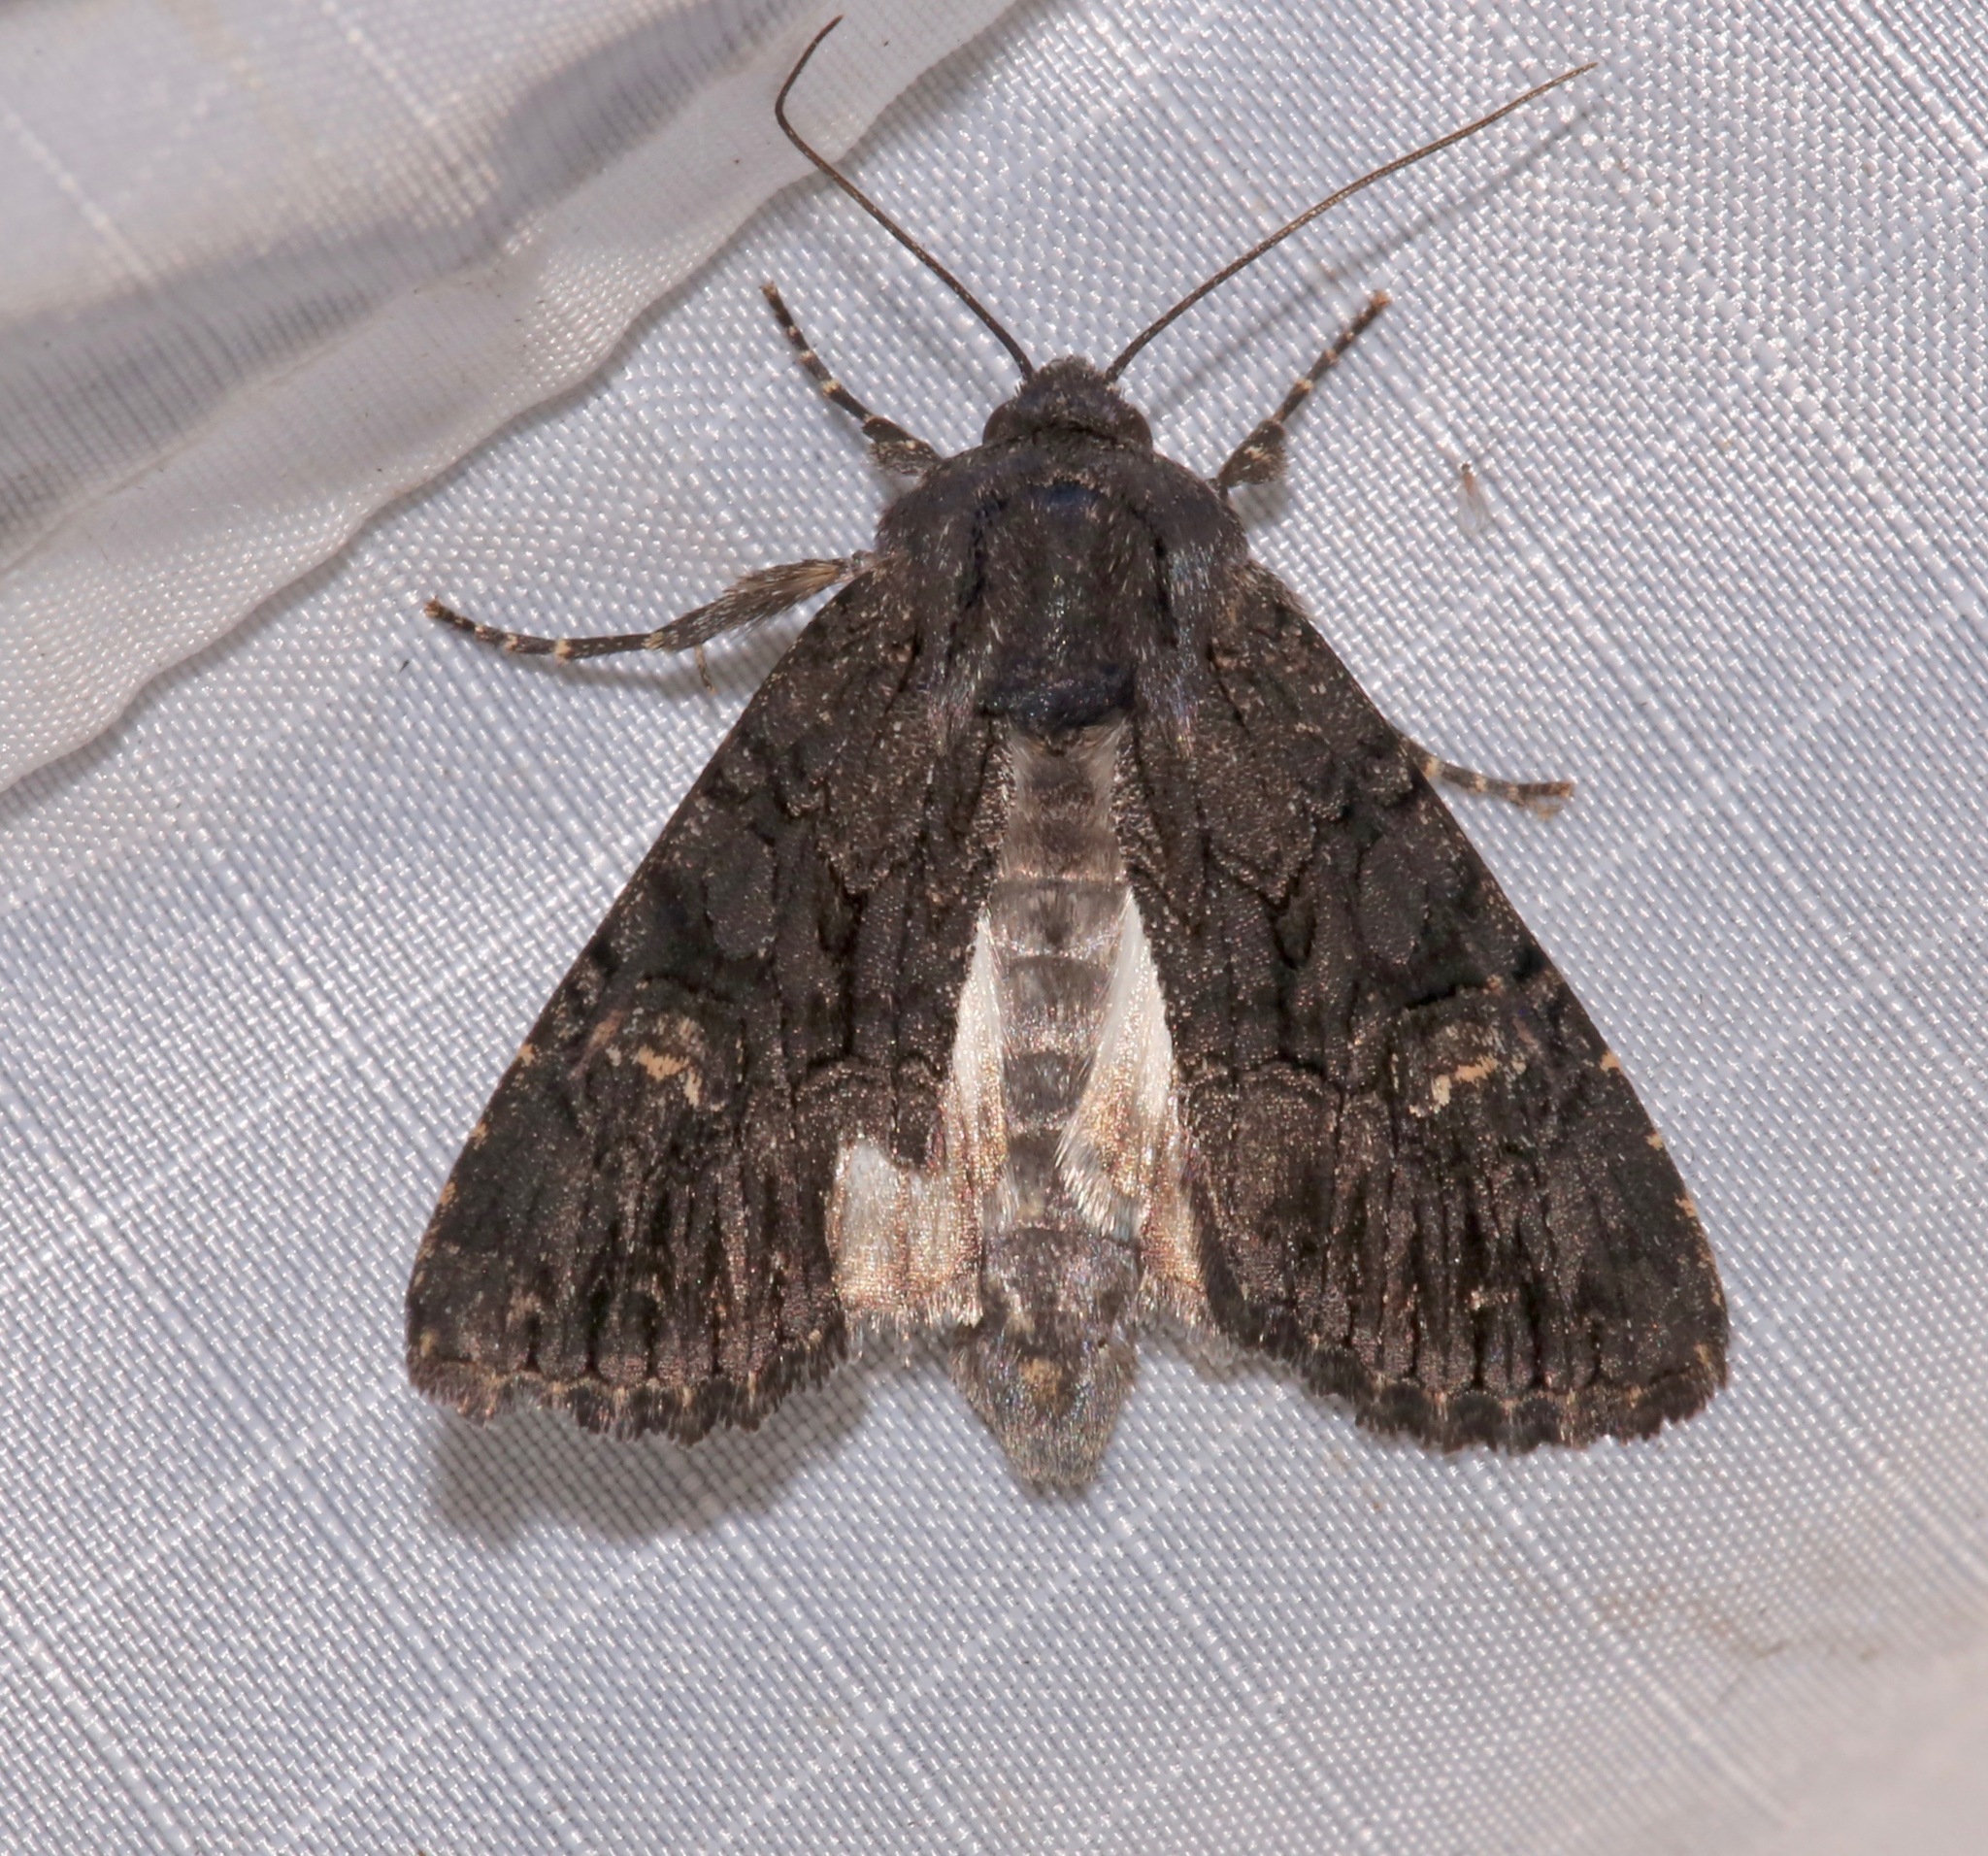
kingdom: Animalia
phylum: Arthropoda
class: Insecta
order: Lepidoptera
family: Noctuidae
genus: Apamea
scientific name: Apamea burgessi
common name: Burgess' apamea moth
